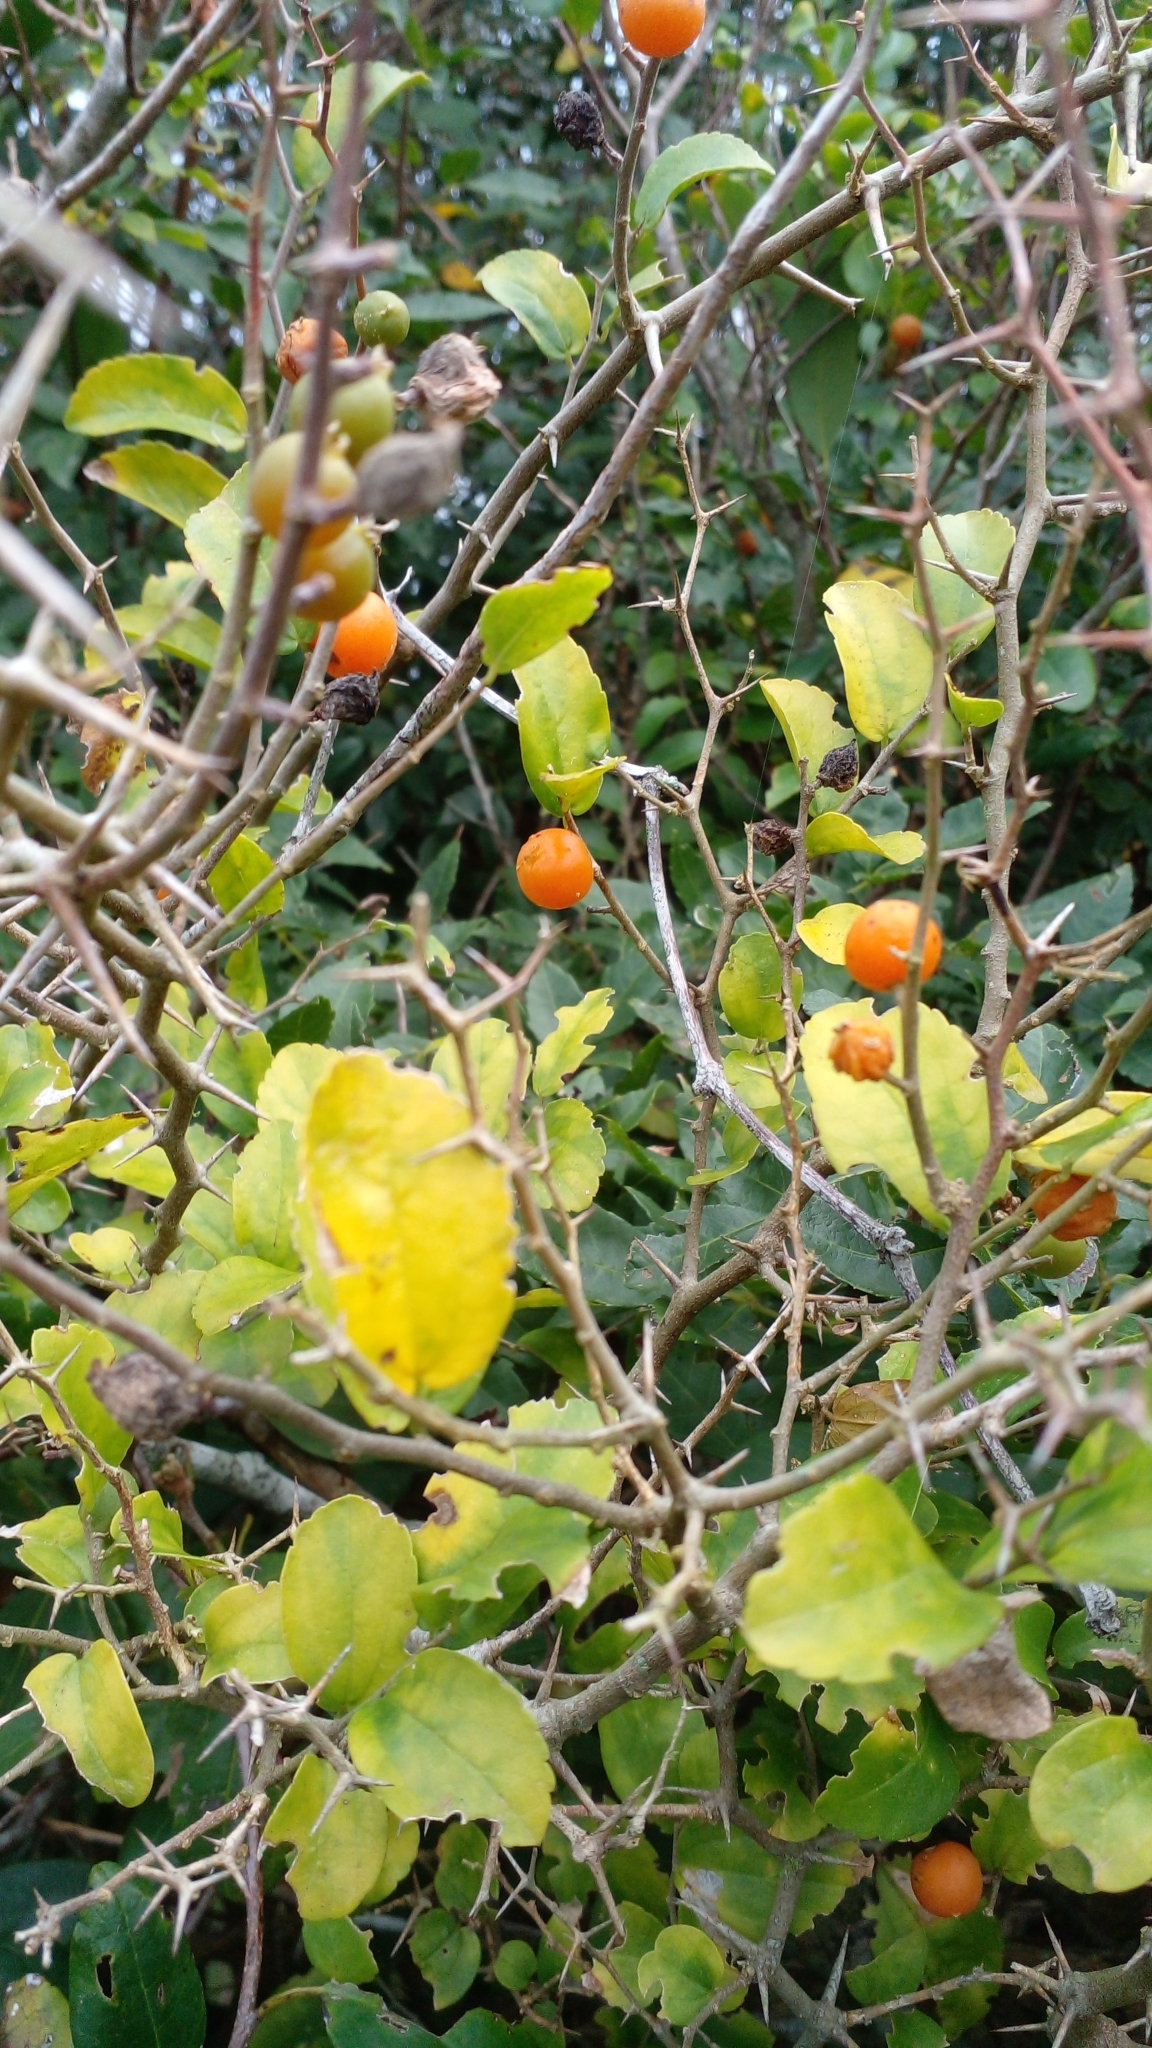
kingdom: Plantae
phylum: Tracheophyta
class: Magnoliopsida
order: Rosales
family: Cannabaceae
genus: Celtis
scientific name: Celtis spinosa
